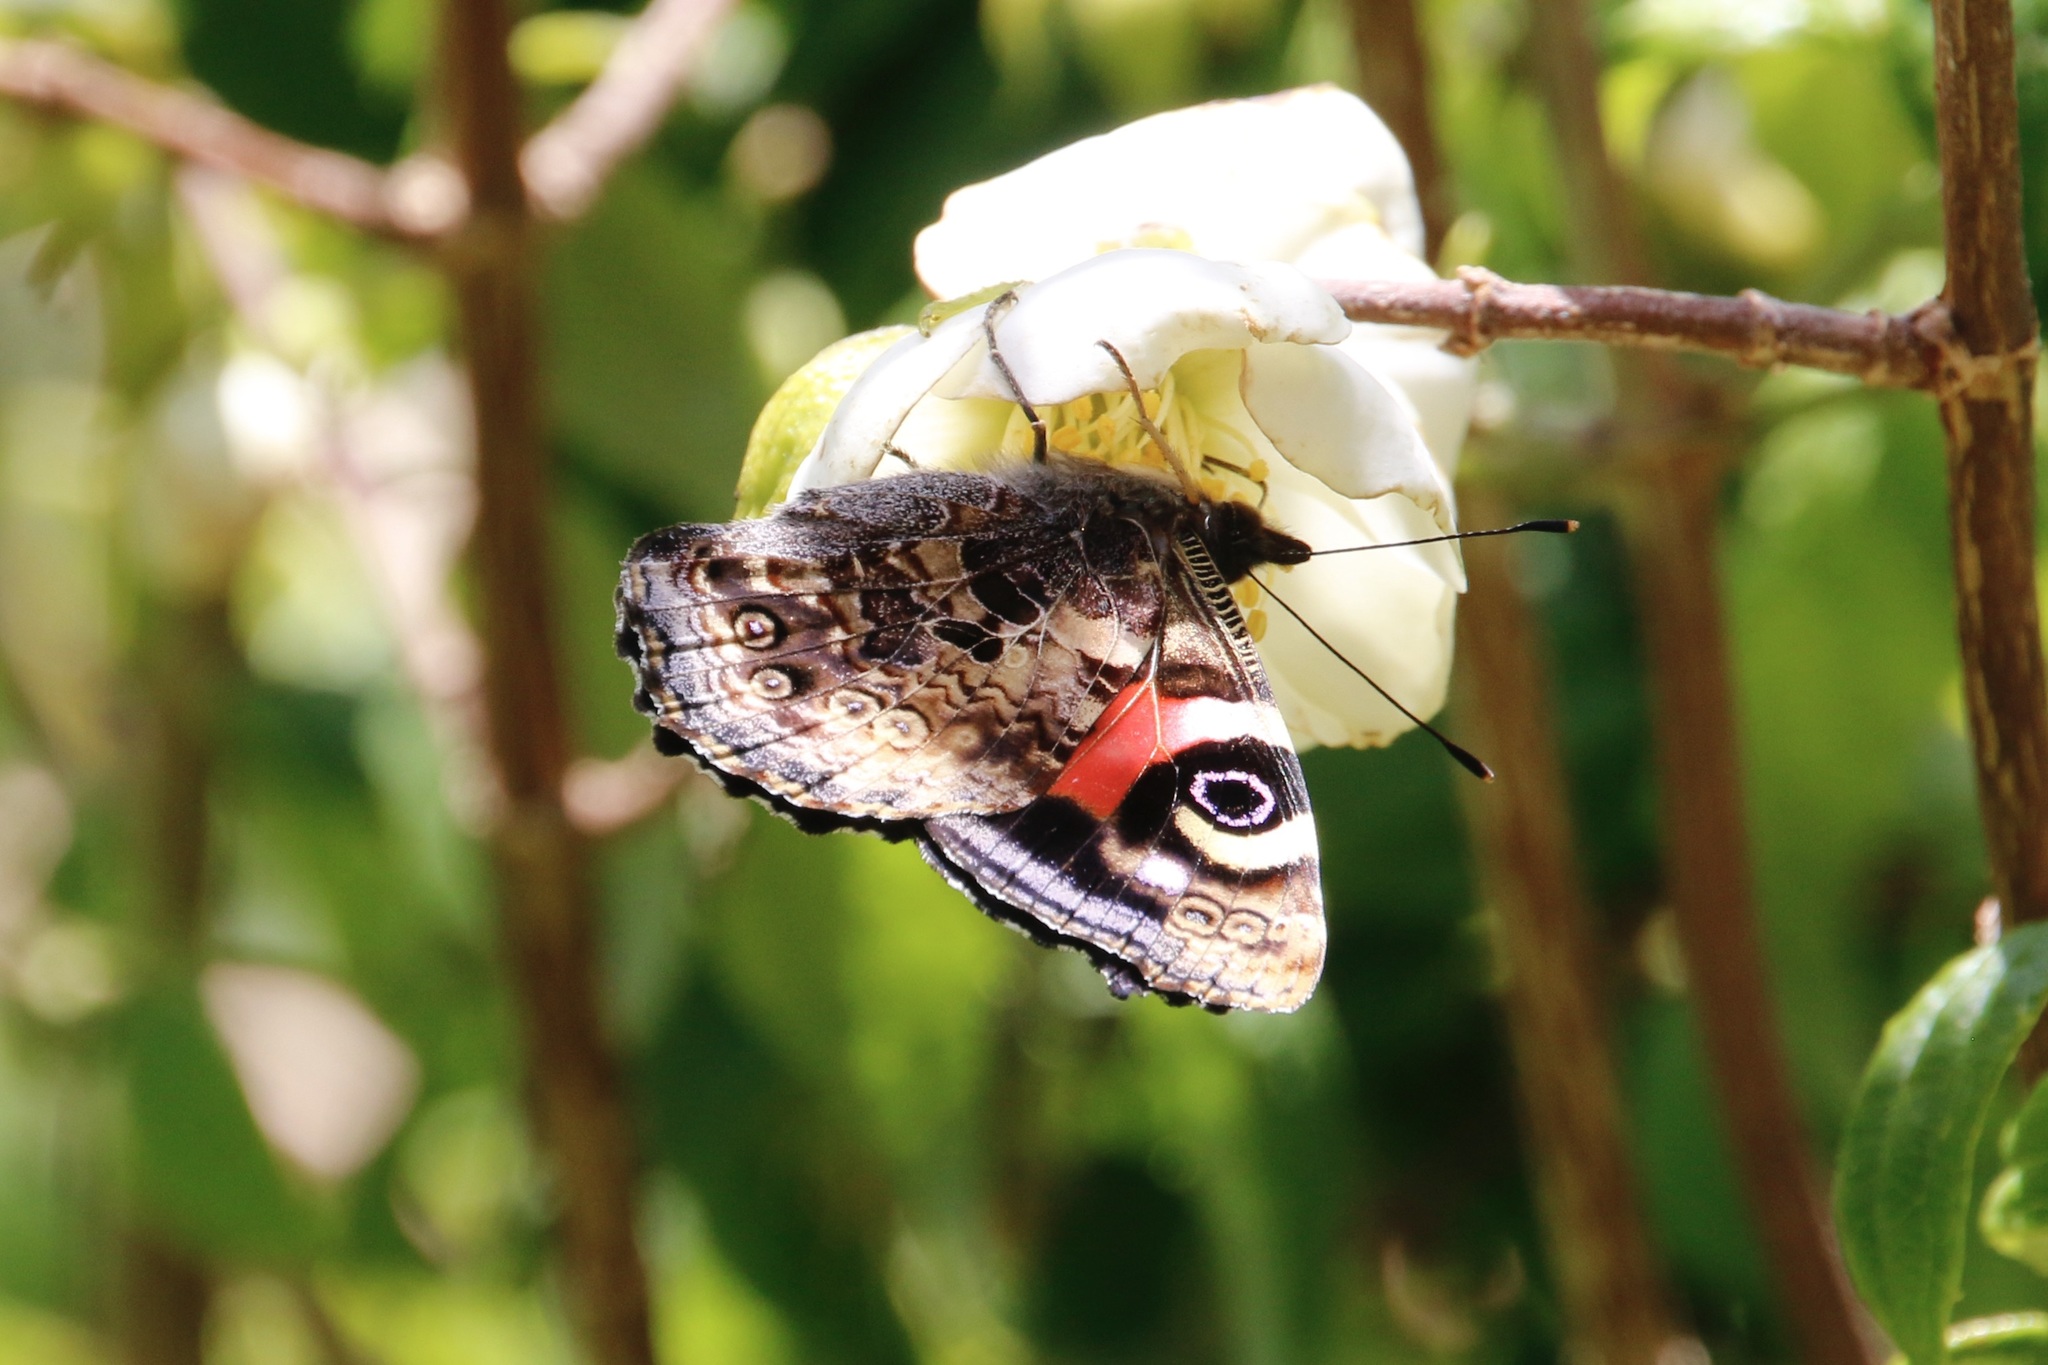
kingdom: Animalia
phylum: Arthropoda
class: Insecta
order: Lepidoptera
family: Nymphalidae
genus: Vanessa
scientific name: Vanessa gonerilla
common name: New zealand red admiral
